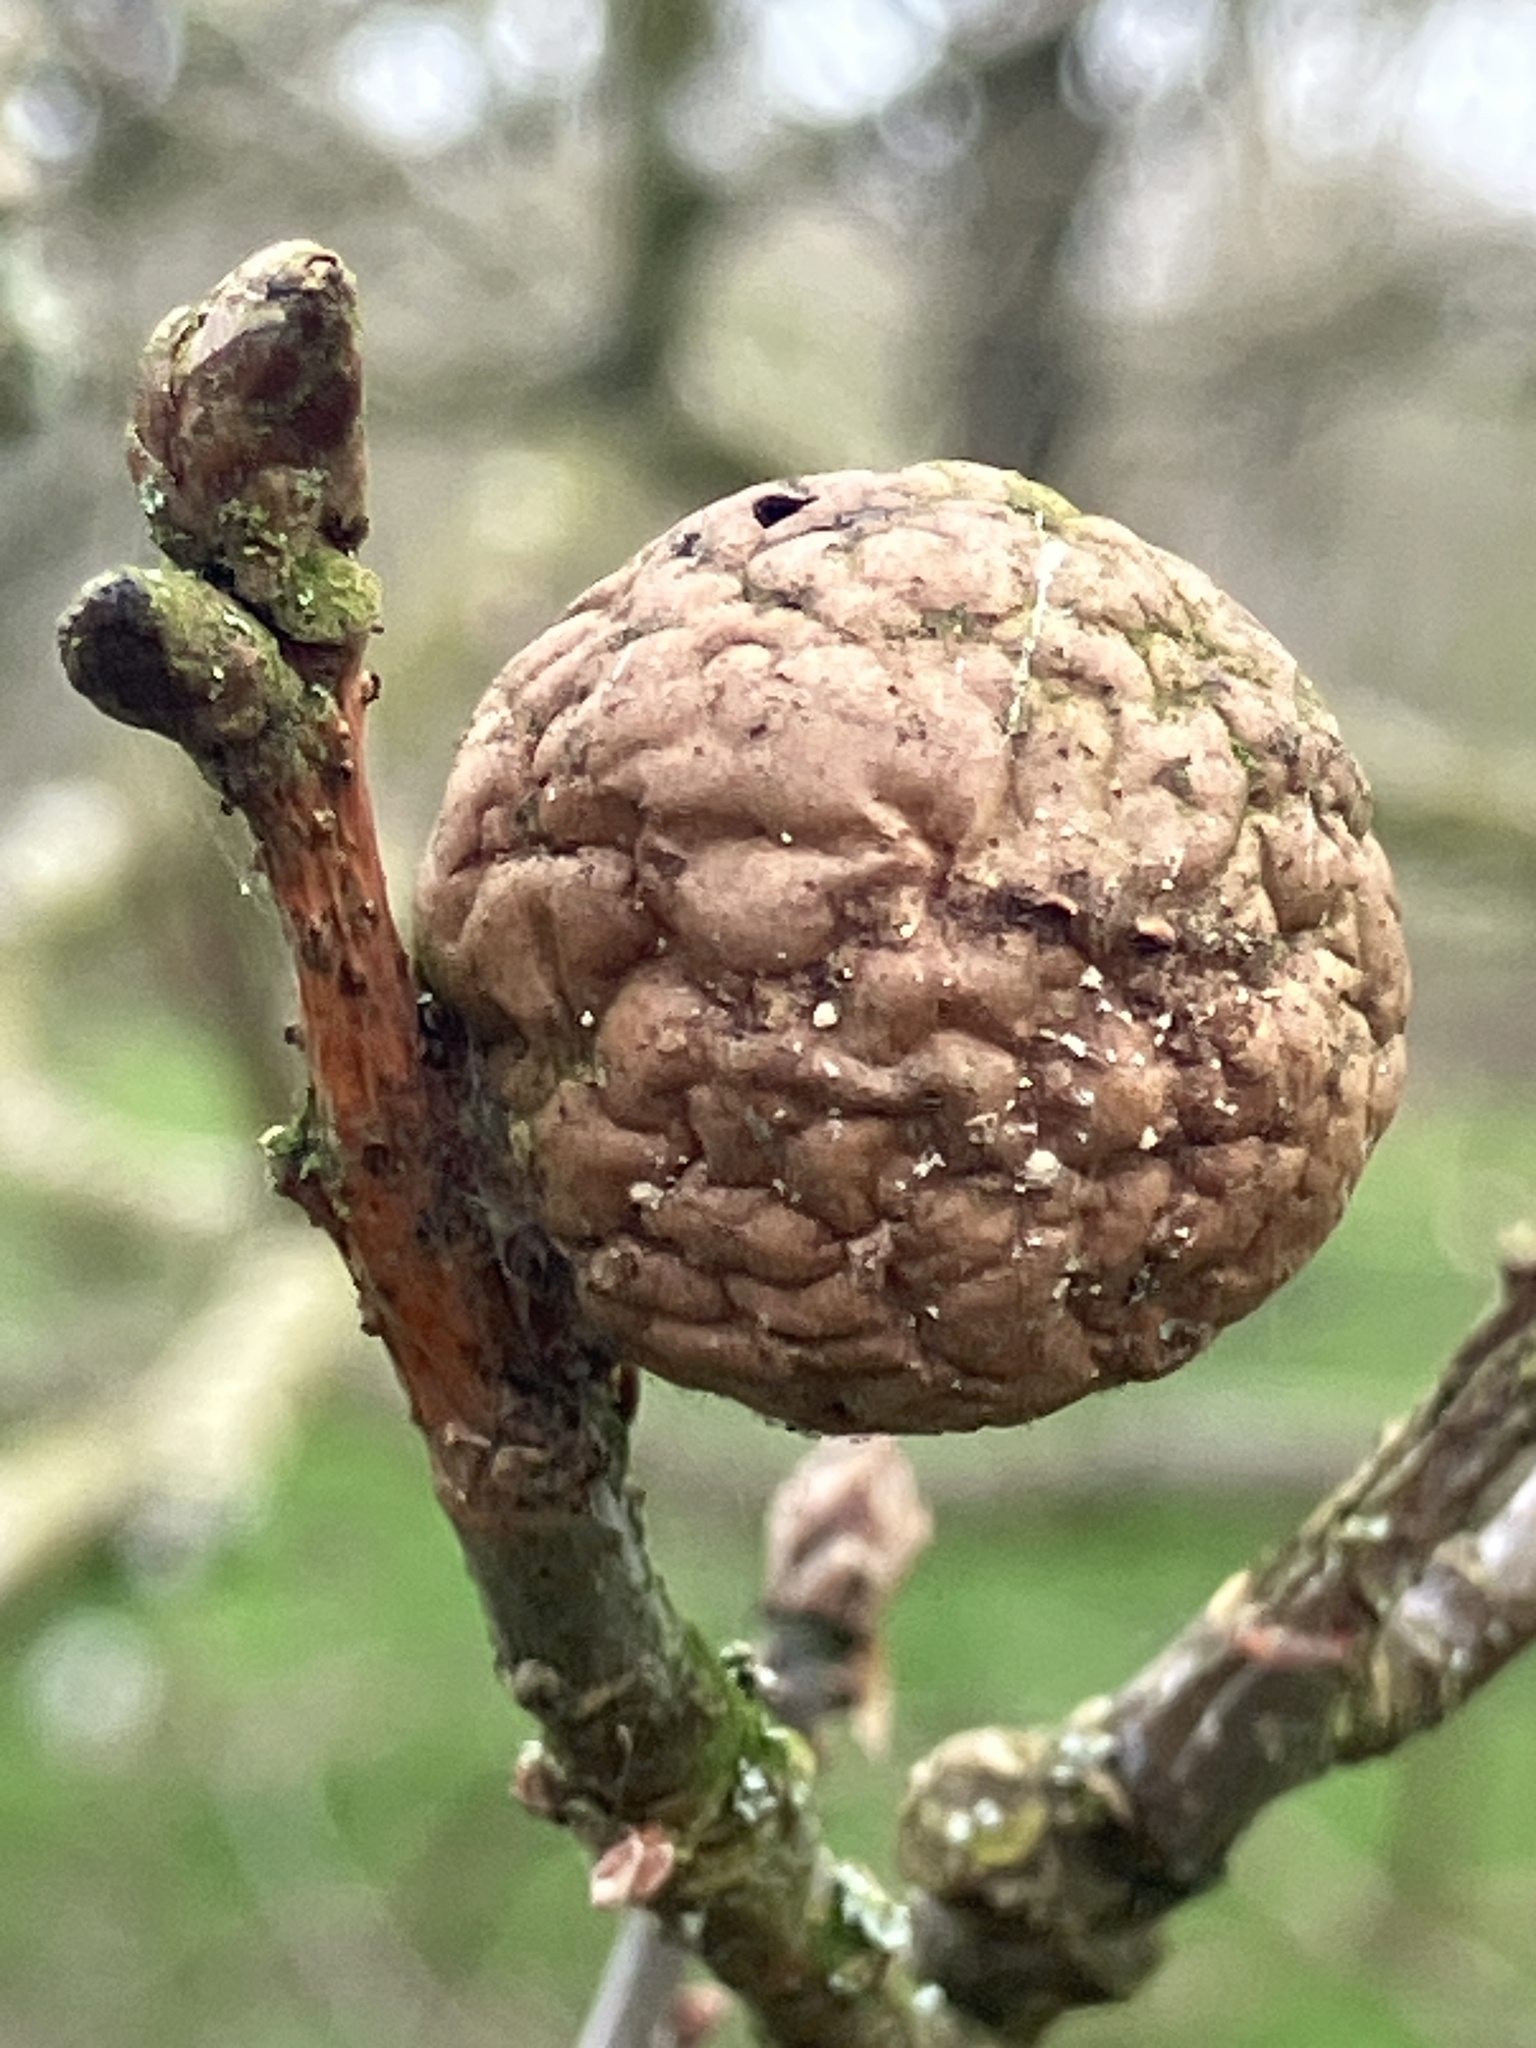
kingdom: Animalia
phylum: Arthropoda
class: Insecta
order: Hymenoptera
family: Cynipidae
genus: Andricus
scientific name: Andricus kollari
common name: Marble gall
